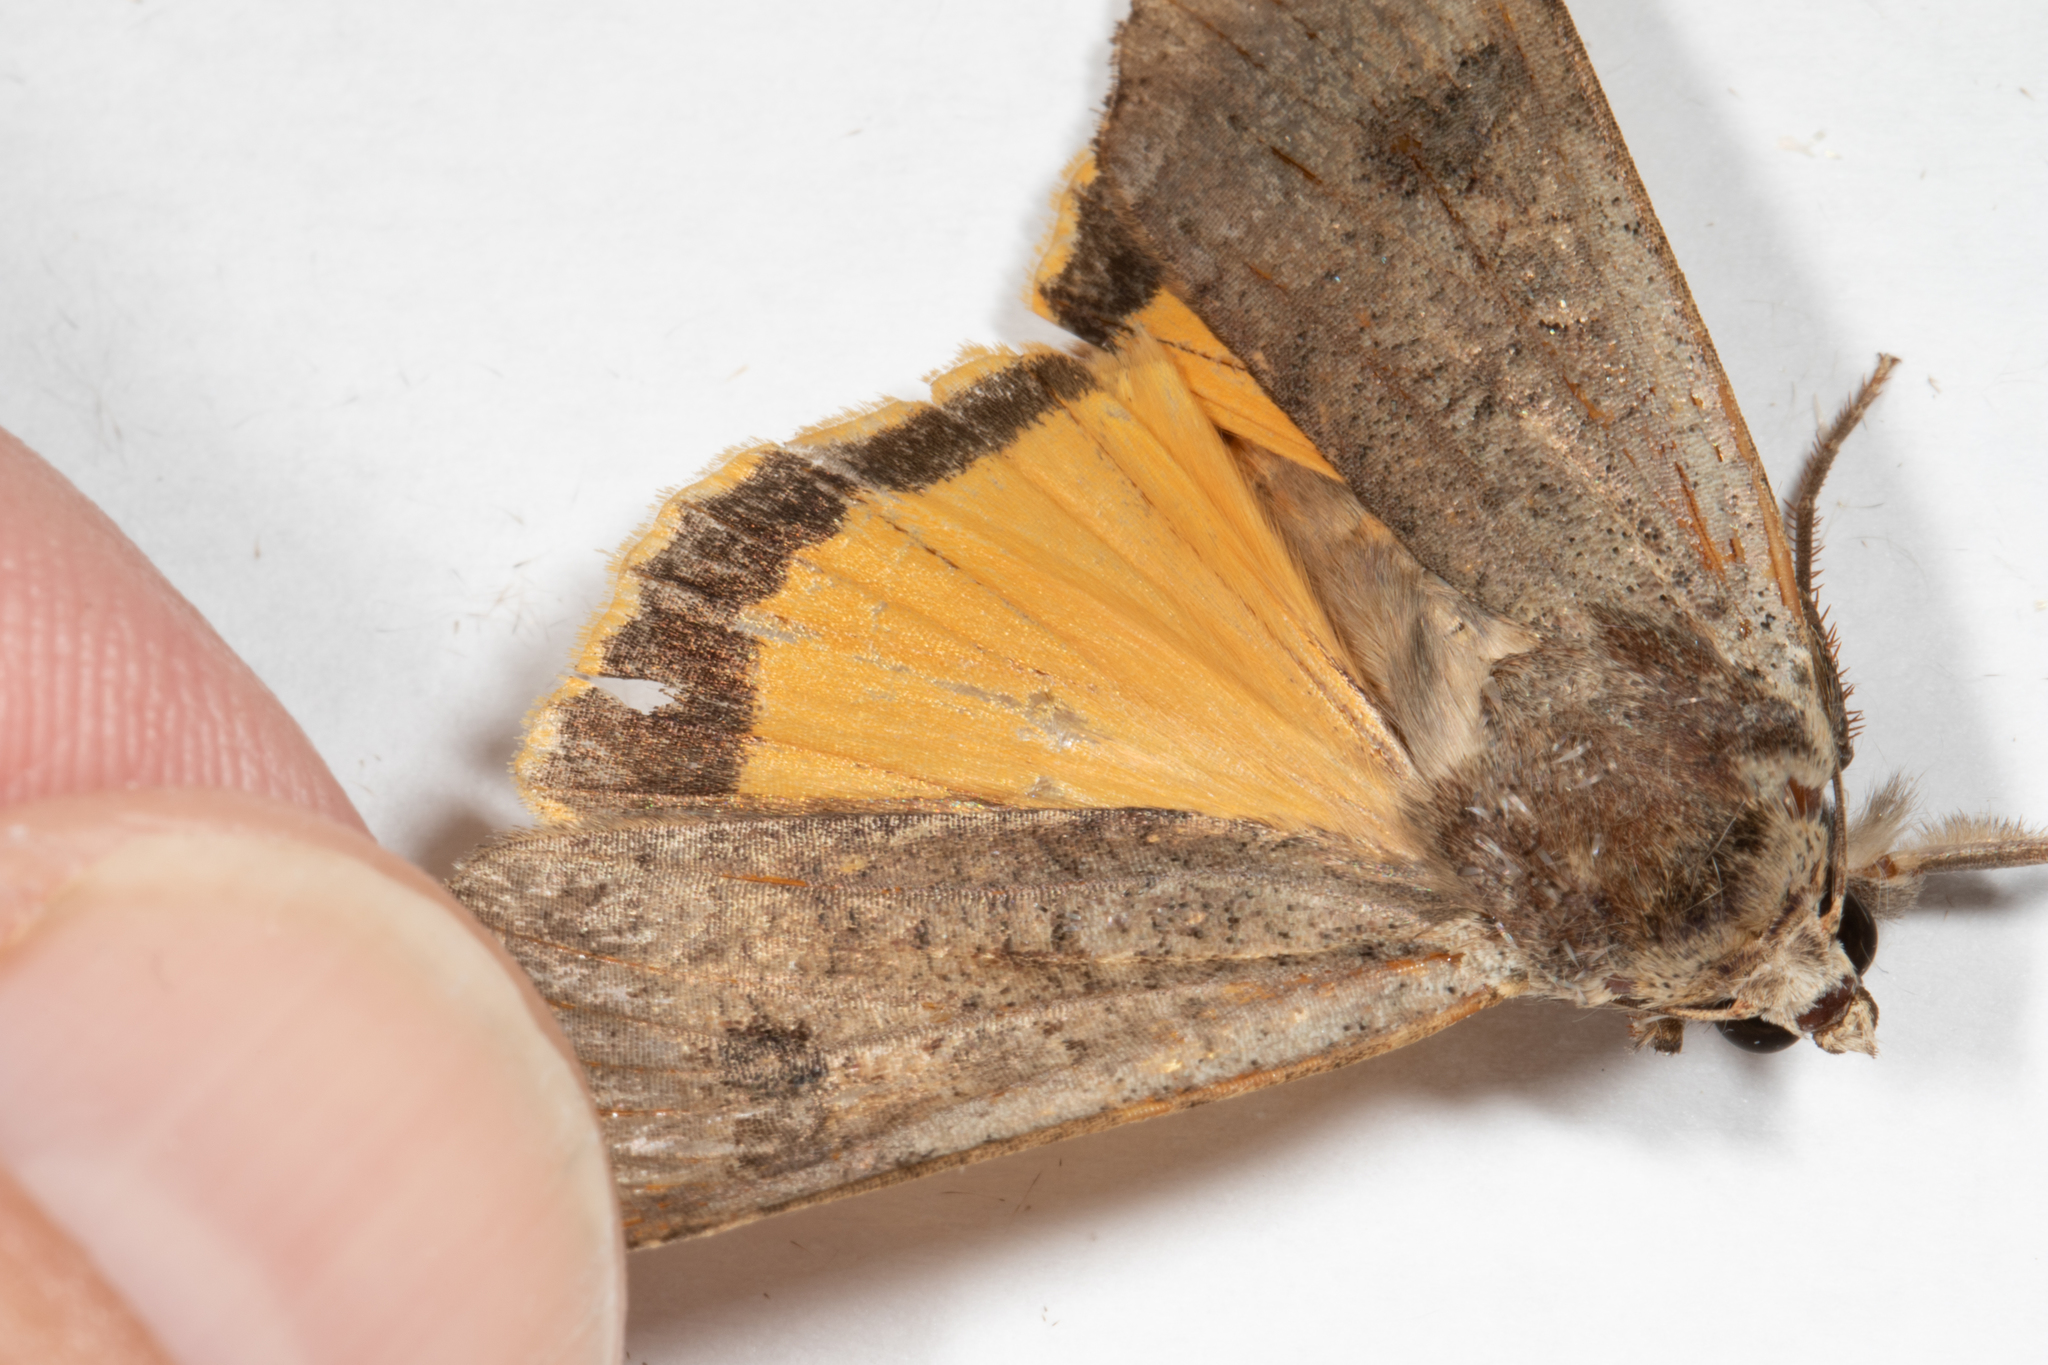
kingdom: Animalia
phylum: Arthropoda
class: Insecta
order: Lepidoptera
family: Noctuidae
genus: Noctua
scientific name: Noctua pronuba
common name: Large yellow underwing
